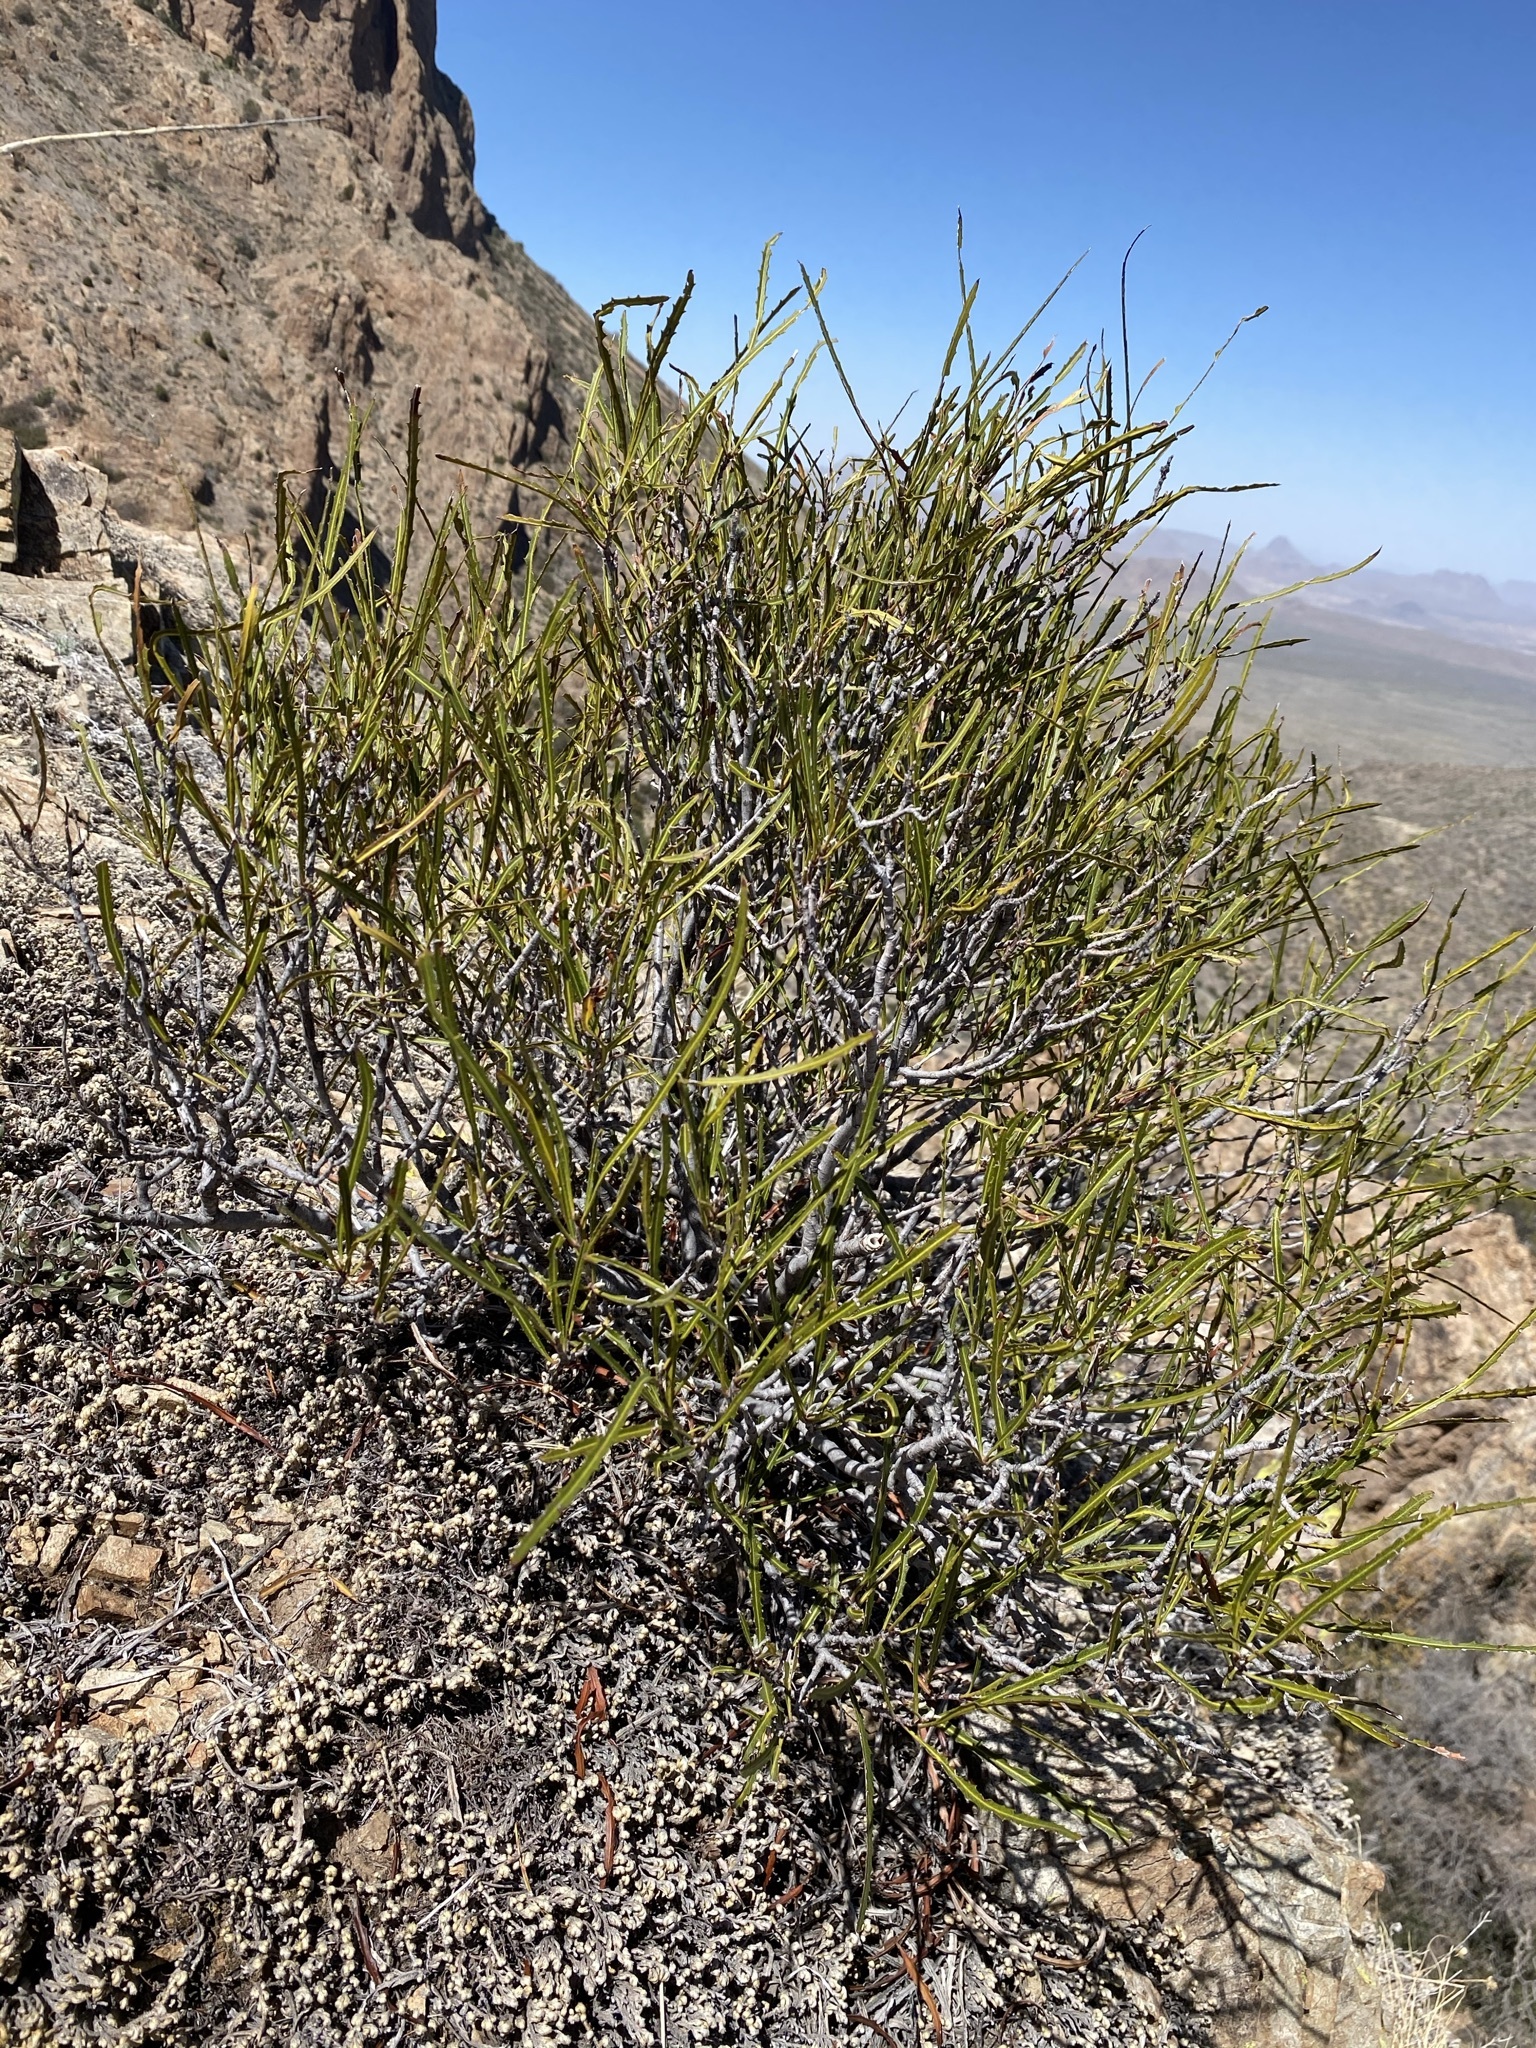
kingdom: Plantae
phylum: Tracheophyta
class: Magnoliopsida
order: Rosales
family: Rosaceae
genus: Vauquelinia
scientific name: Vauquelinia corymbosa
